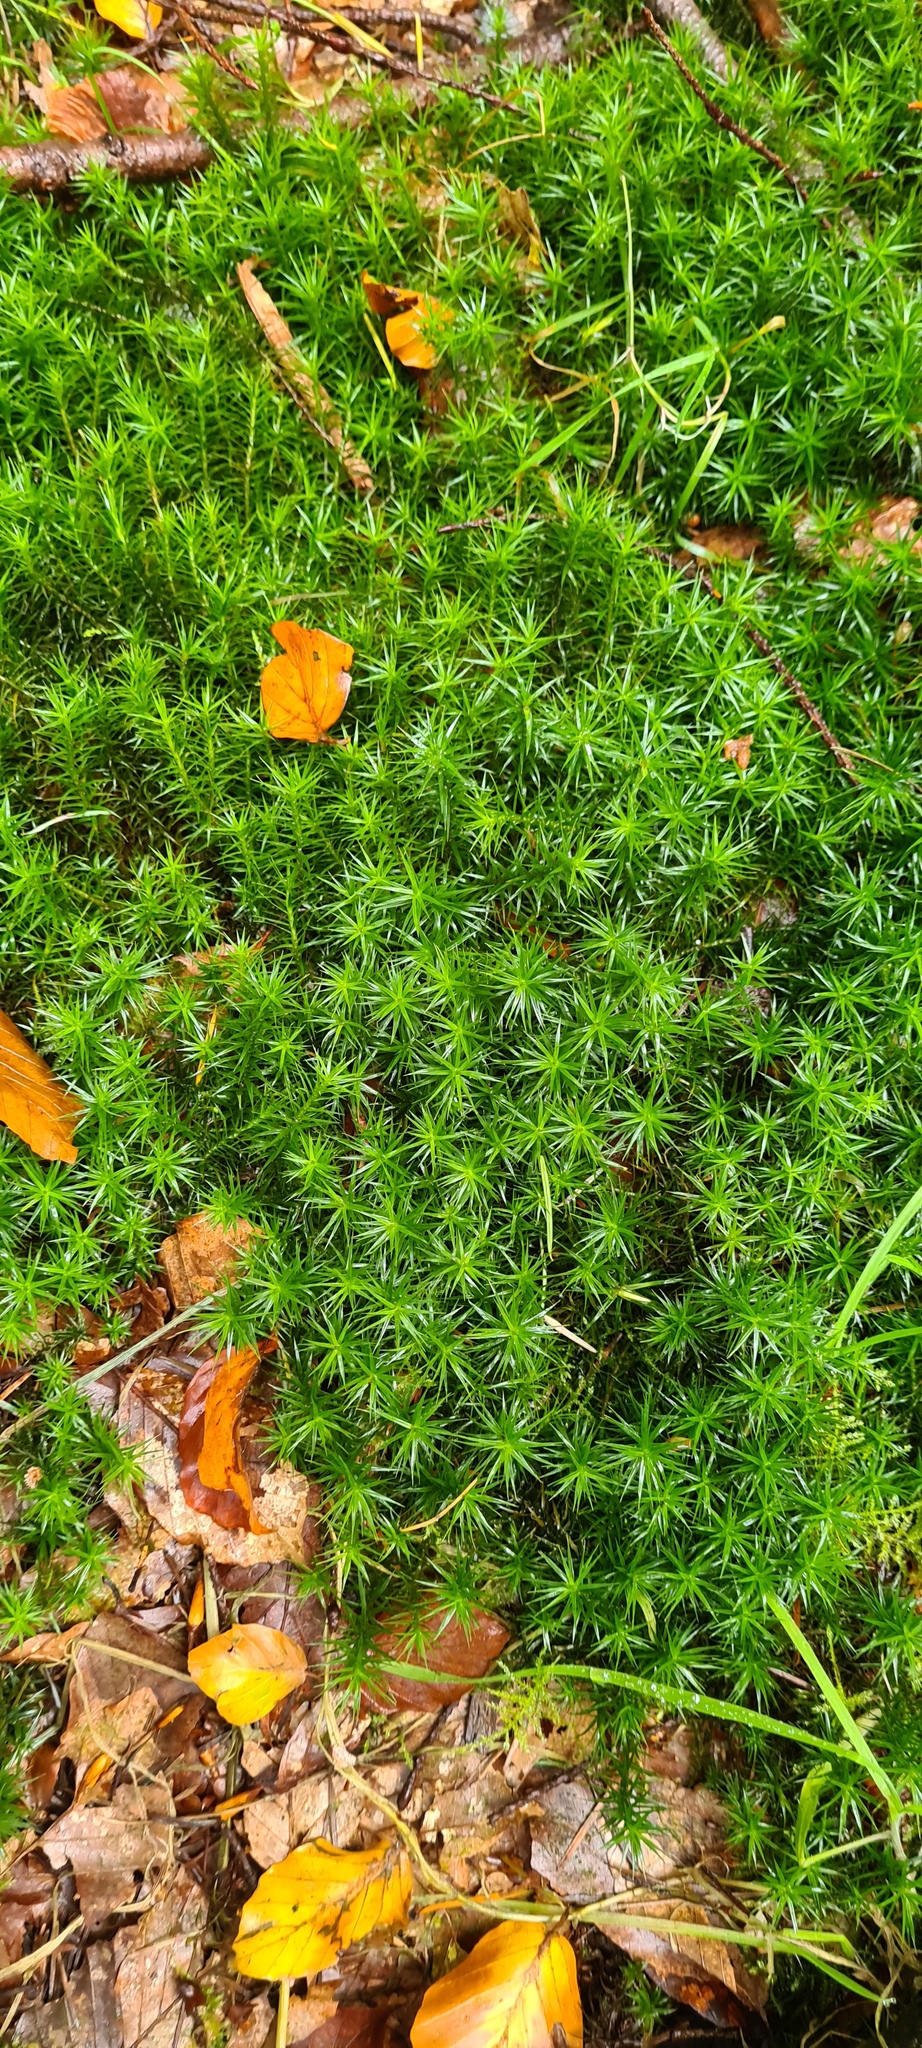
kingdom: Plantae
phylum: Bryophyta
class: Polytrichopsida
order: Polytrichales
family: Polytrichaceae
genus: Polytrichum
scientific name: Polytrichum formosum
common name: Bank haircap moss
